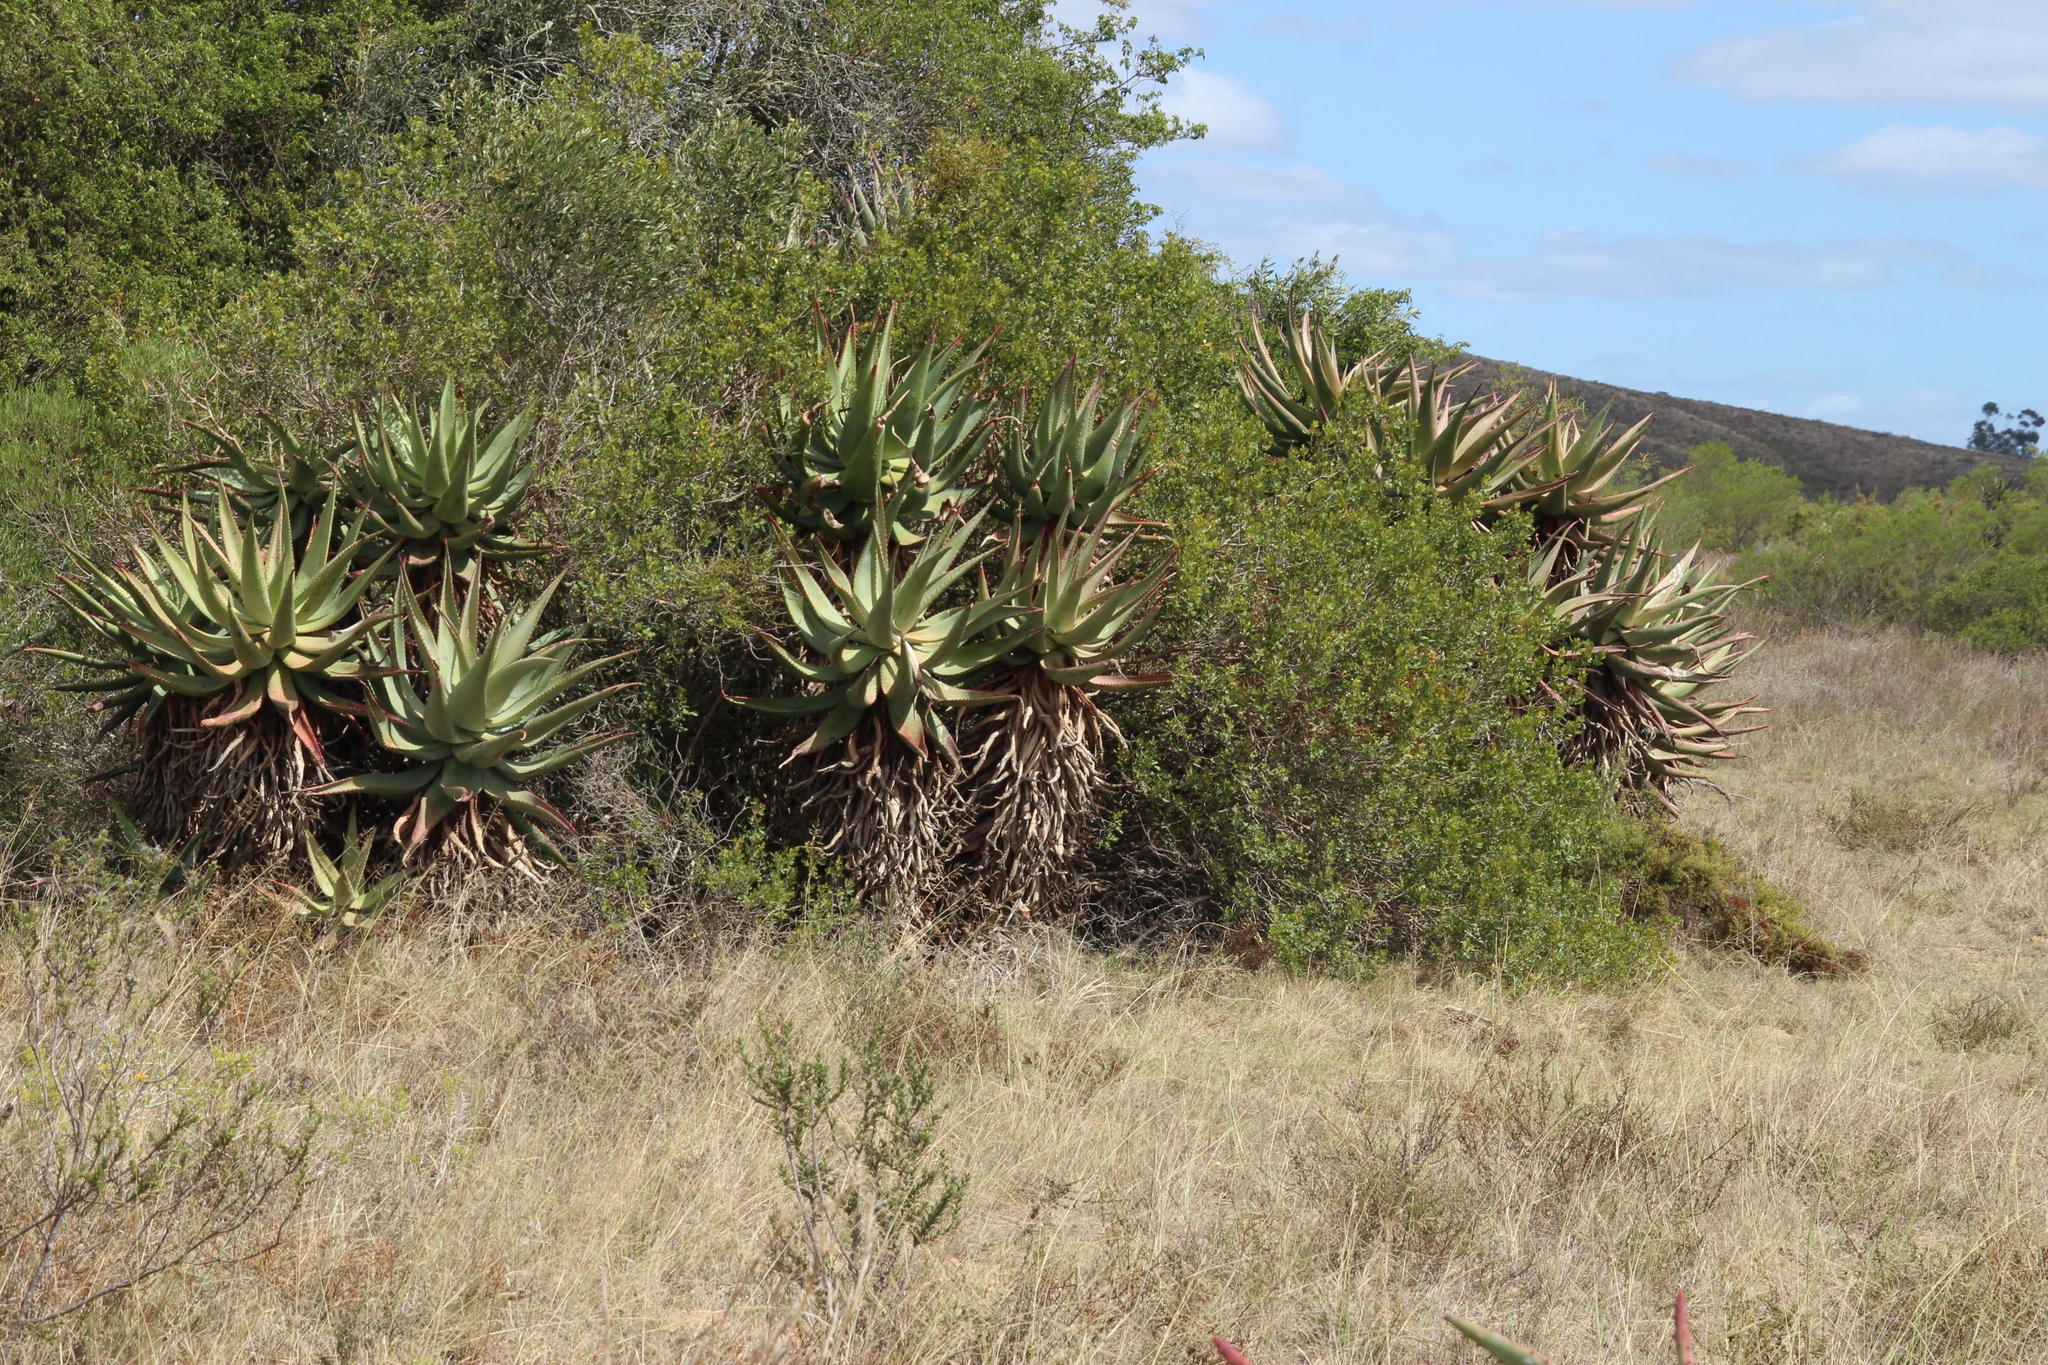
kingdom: Plantae
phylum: Tracheophyta
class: Liliopsida
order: Asparagales
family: Asphodelaceae
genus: Aloe
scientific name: Aloe ferox
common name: Bitter aloe
